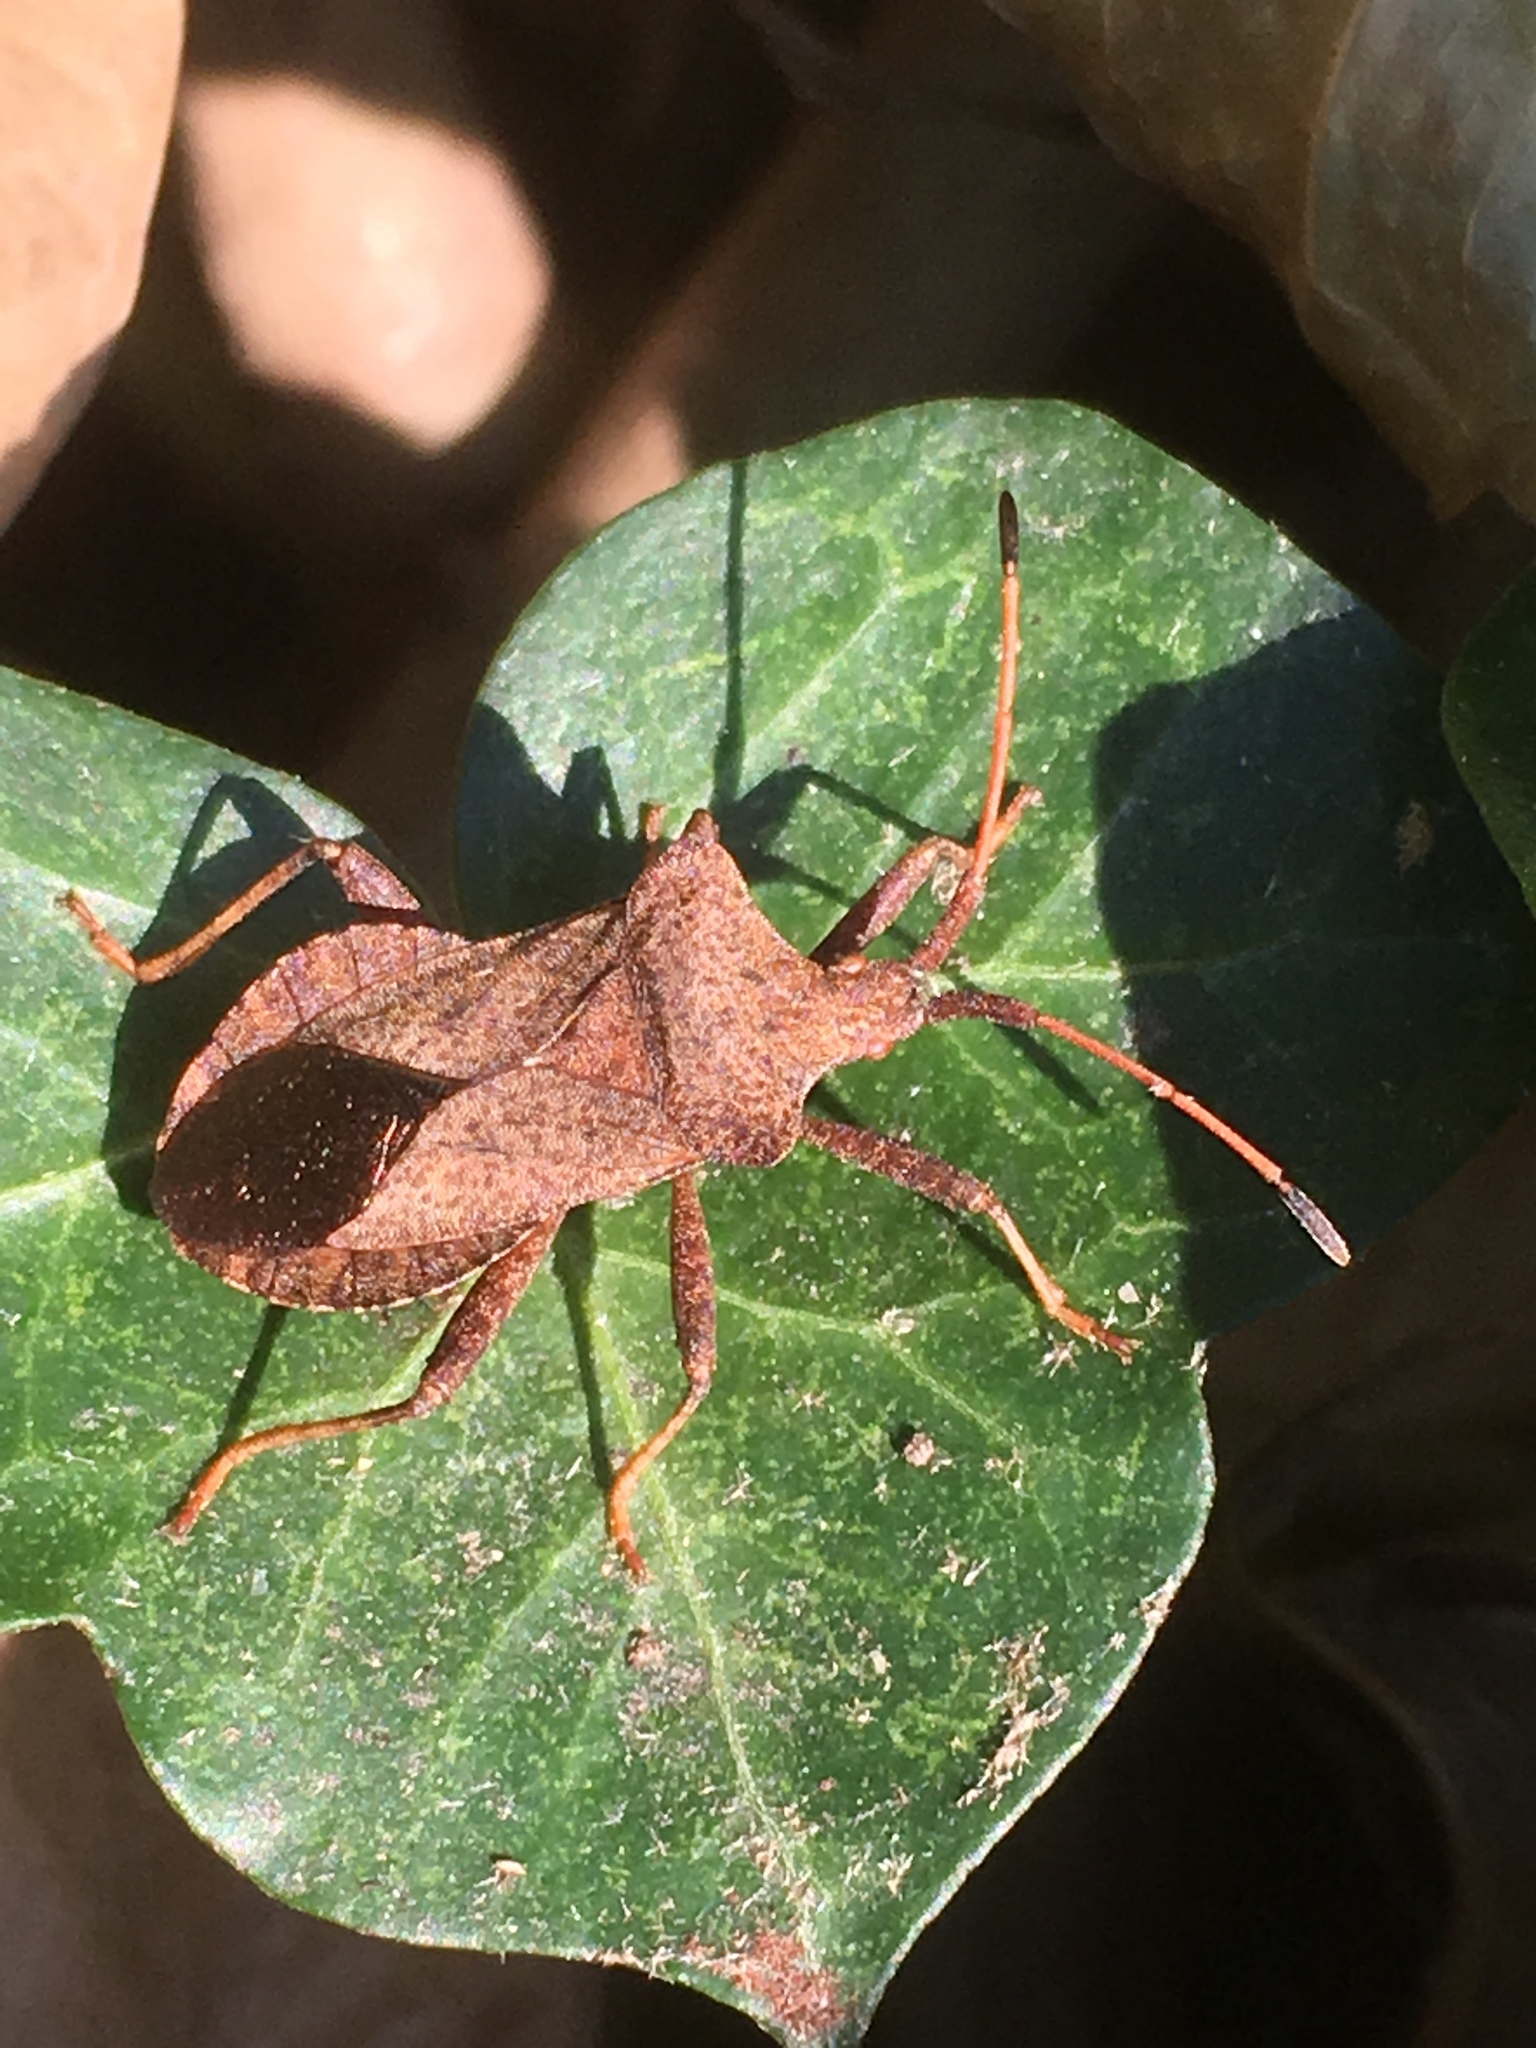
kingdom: Animalia
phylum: Arthropoda
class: Insecta
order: Hemiptera
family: Coreidae
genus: Coreus
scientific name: Coreus marginatus
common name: Dock bug
